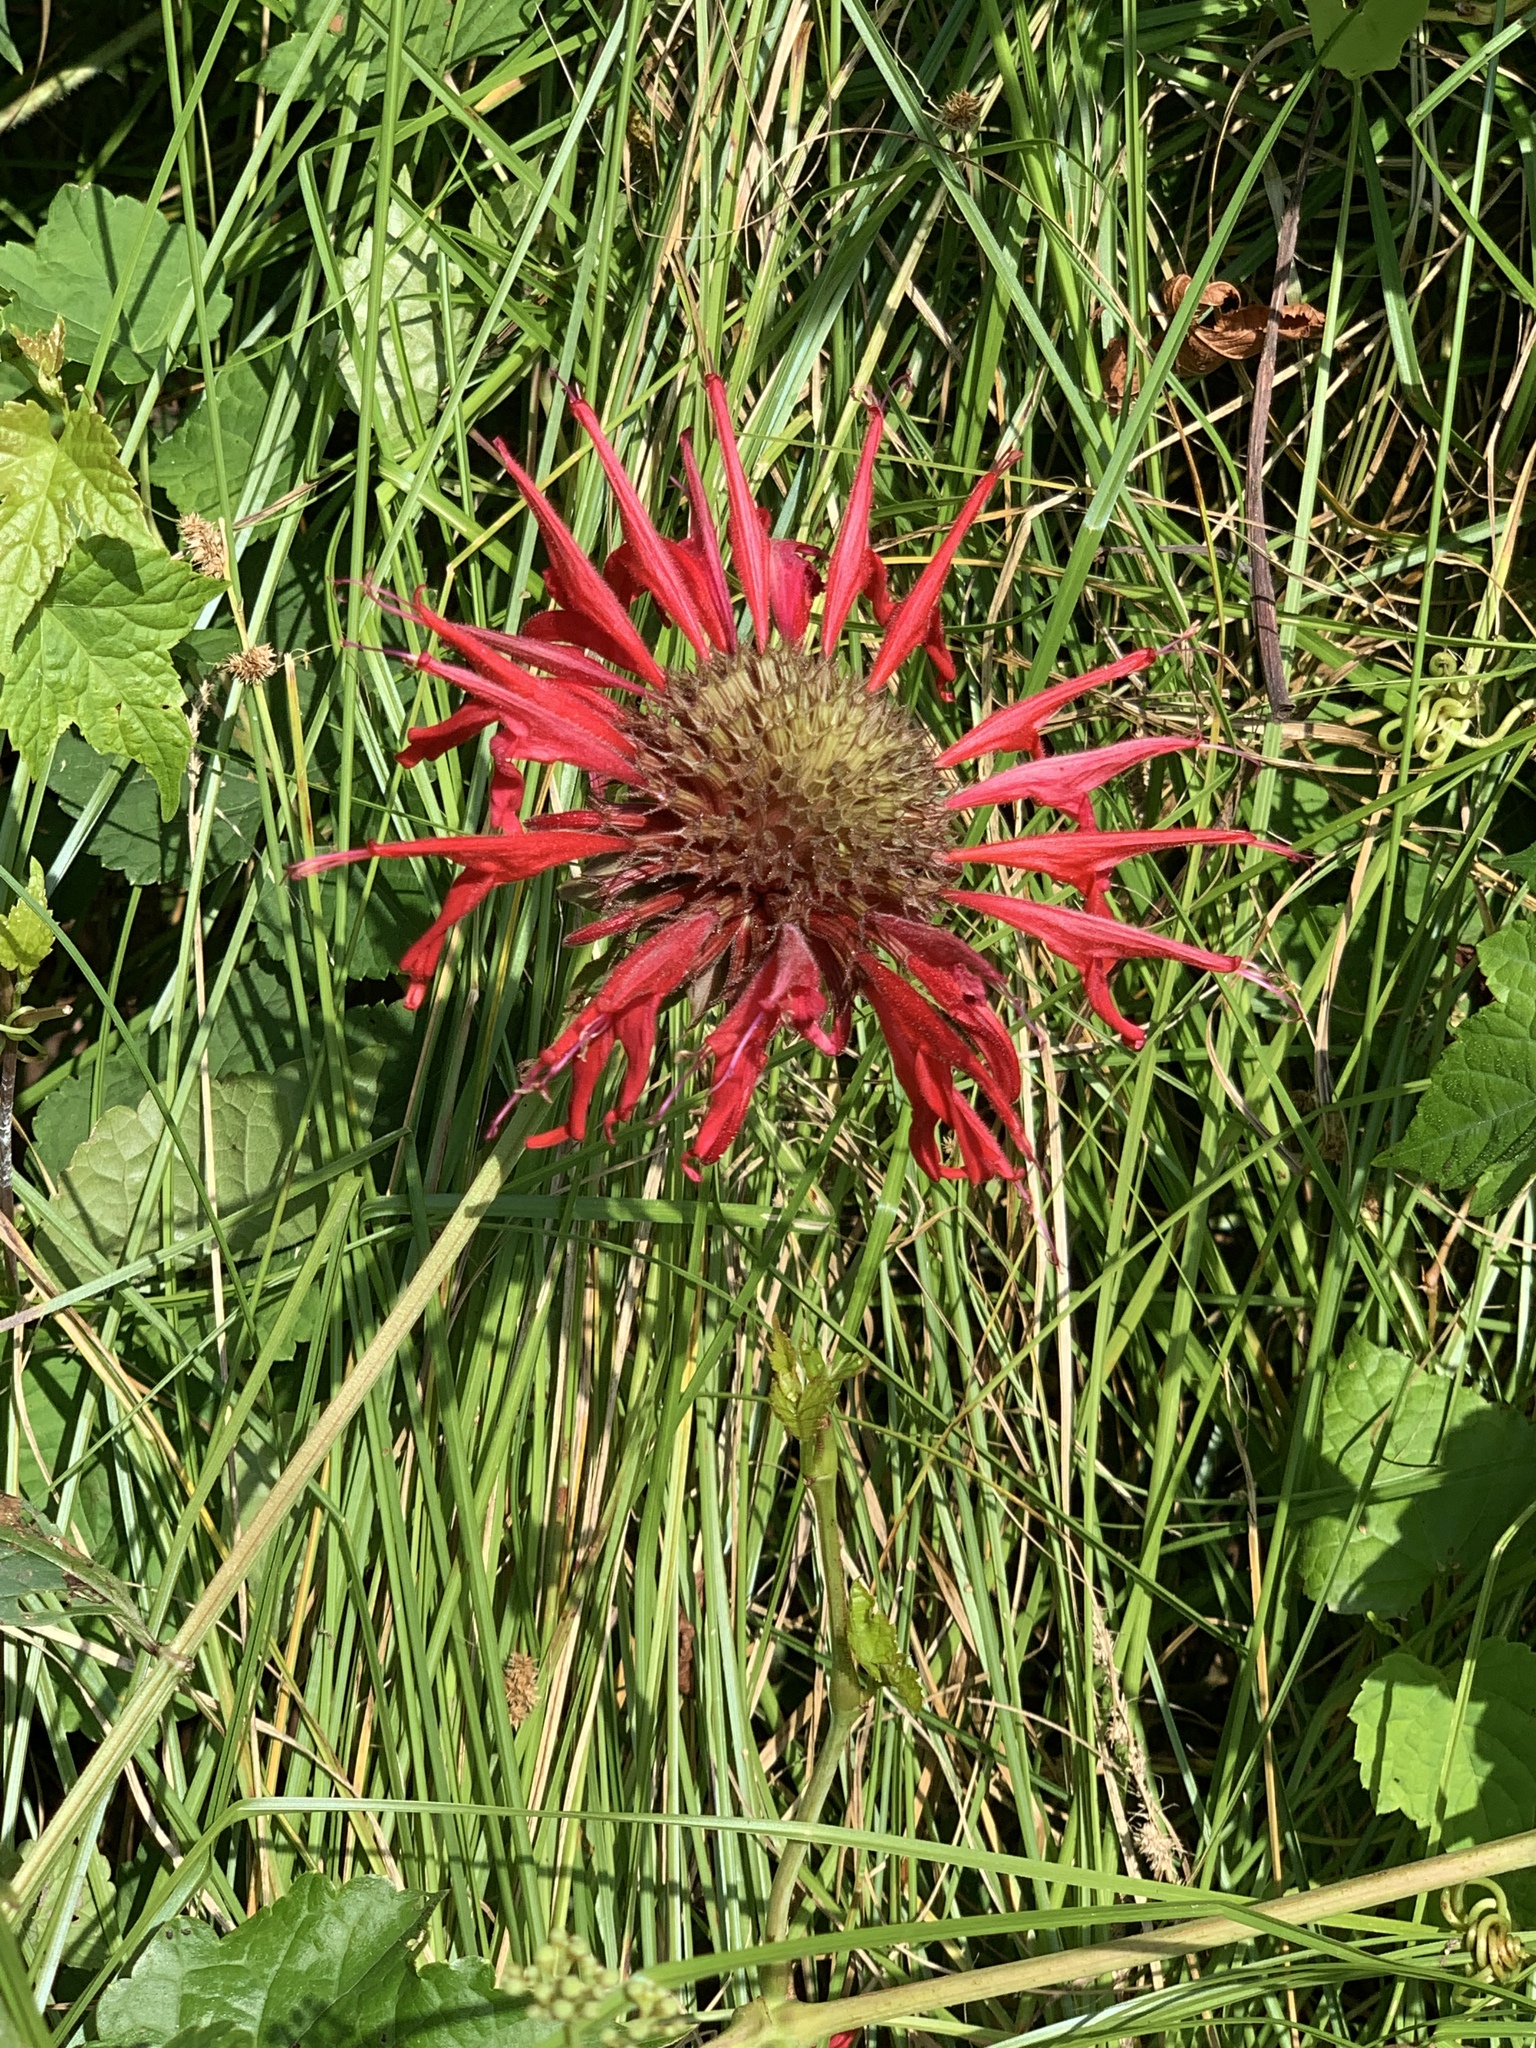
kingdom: Plantae
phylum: Tracheophyta
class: Magnoliopsida
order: Lamiales
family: Lamiaceae
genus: Monarda
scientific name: Monarda didyma
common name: Beebalm
